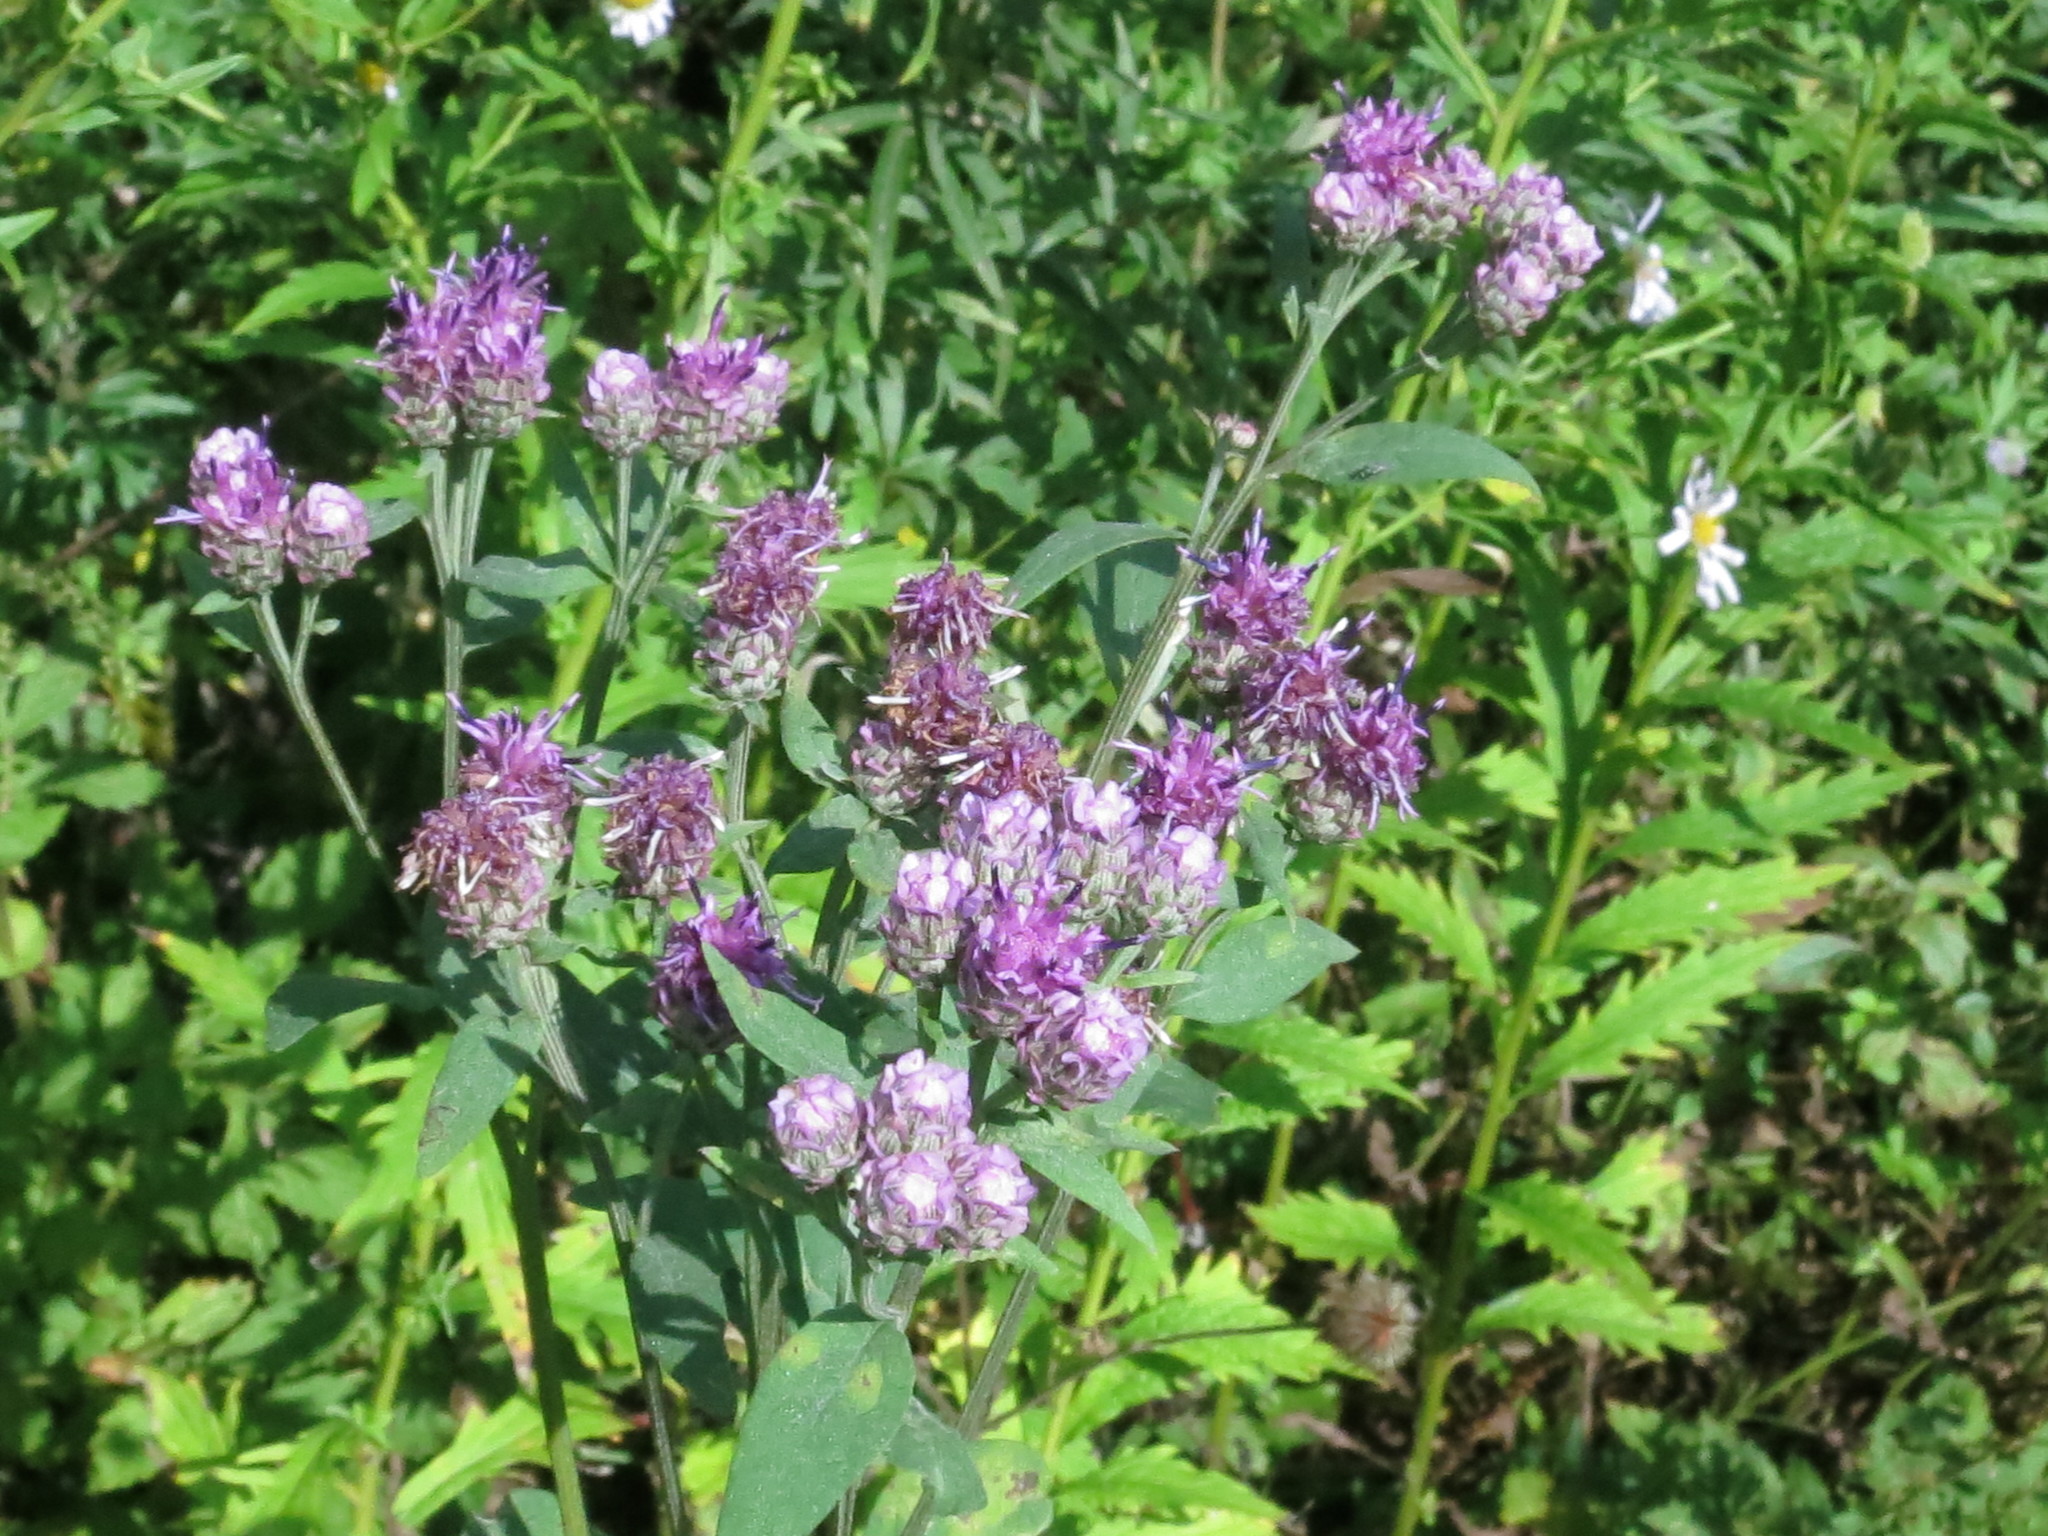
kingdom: Plantae
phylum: Tracheophyta
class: Magnoliopsida
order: Asterales
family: Asteraceae
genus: Saussurea
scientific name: Saussurea pulchella
